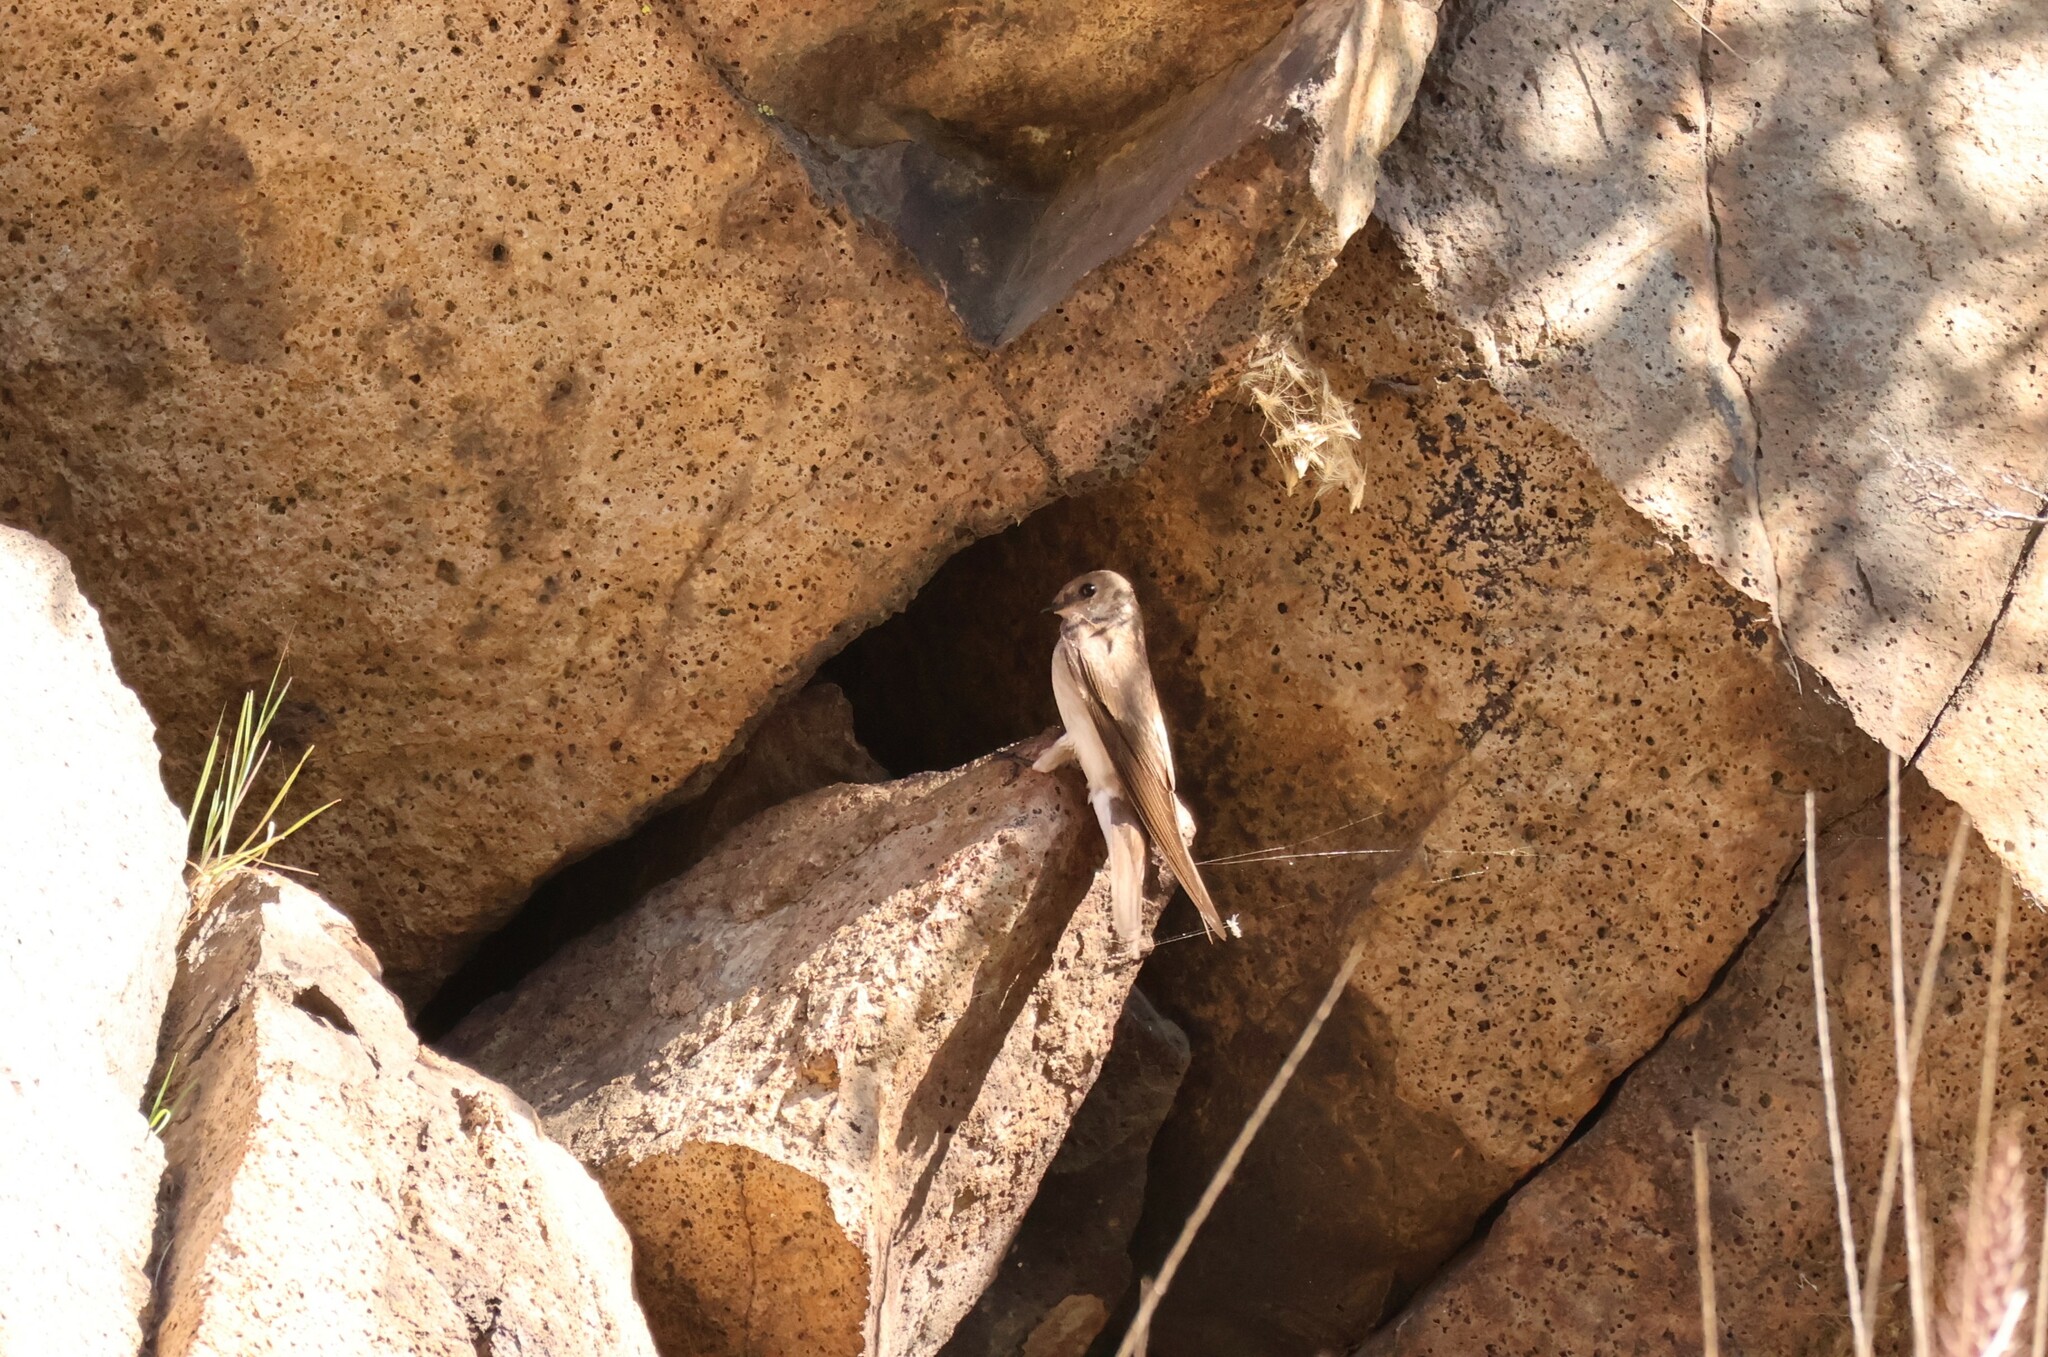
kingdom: Animalia
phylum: Chordata
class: Aves
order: Passeriformes
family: Hirundinidae
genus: Stelgidopteryx
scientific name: Stelgidopteryx serripennis
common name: Northern rough-winged swallow
